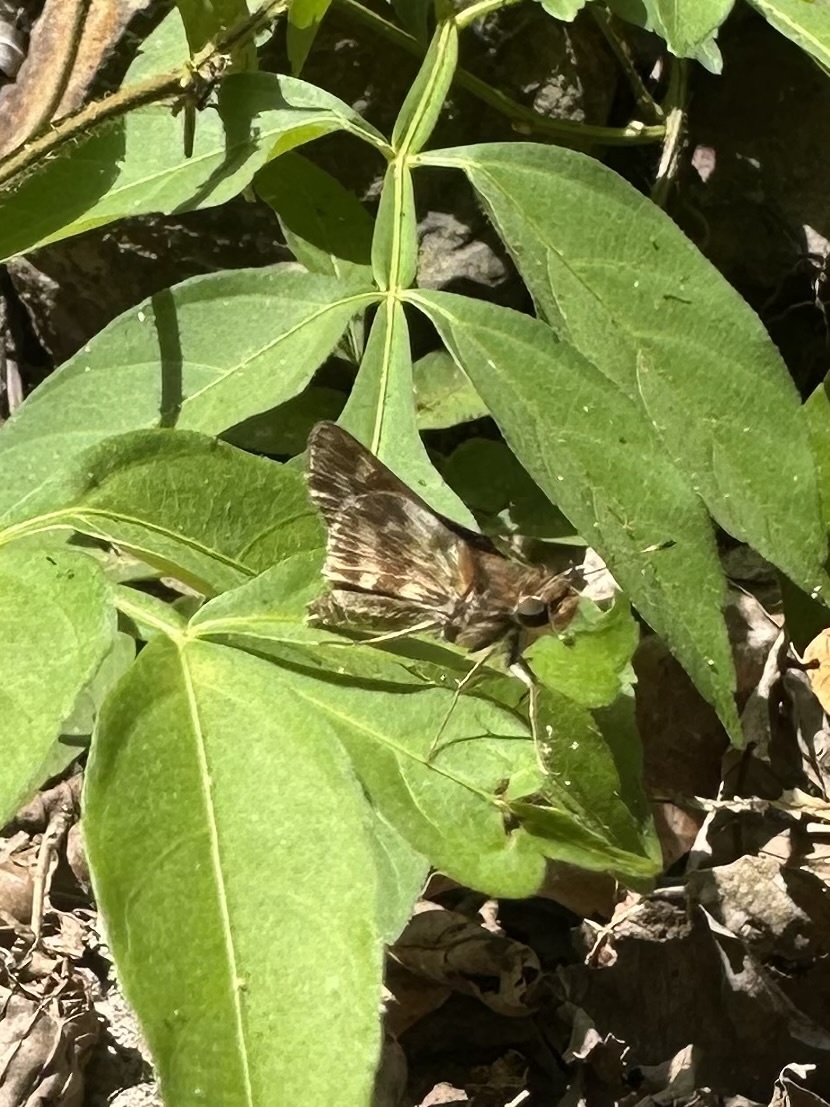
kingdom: Animalia
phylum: Arthropoda
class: Insecta
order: Lepidoptera
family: Hesperiidae
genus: Pompeius
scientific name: Pompeius pompeius
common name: Pompeius skipper
